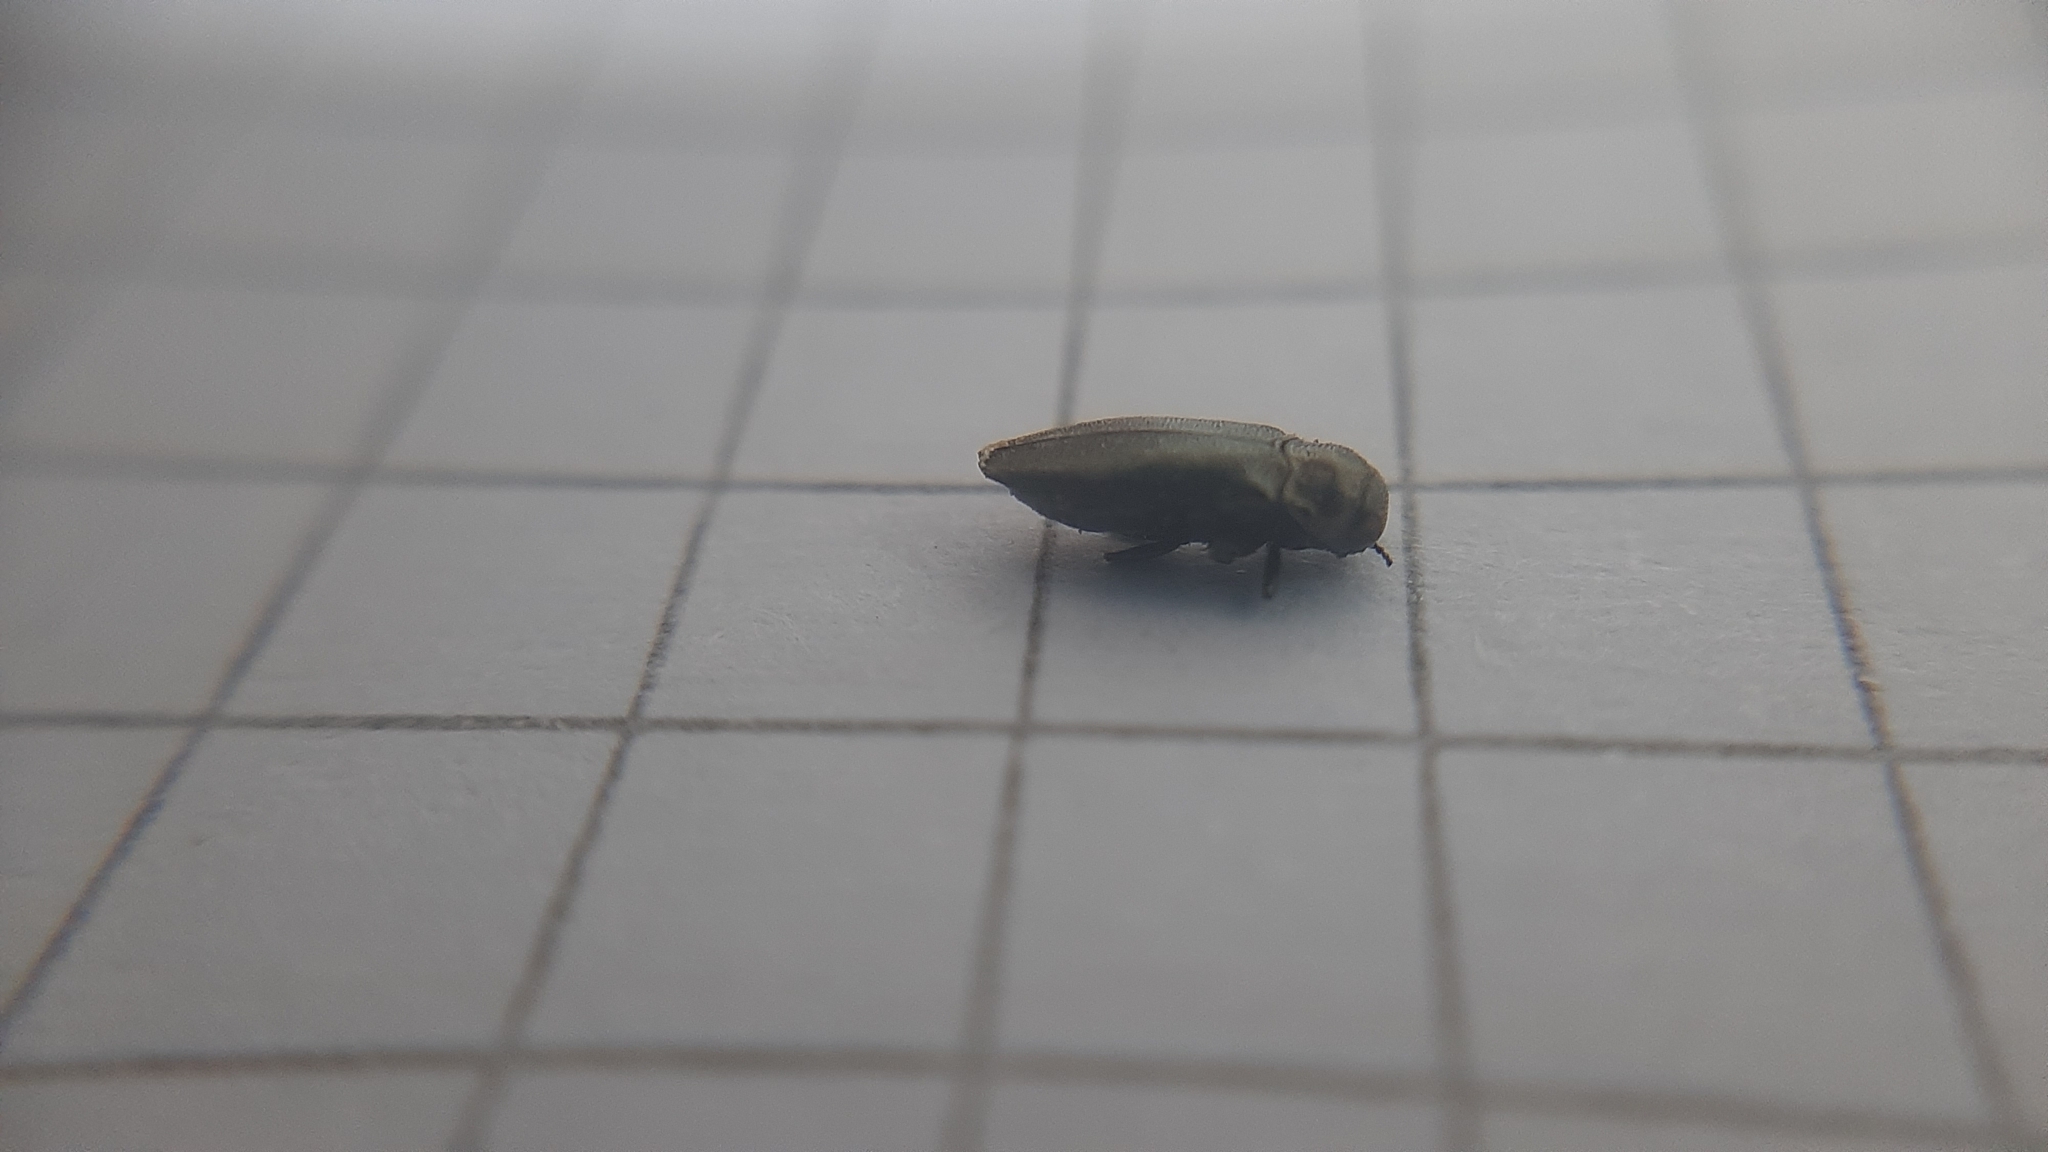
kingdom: Animalia
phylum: Arthropoda
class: Insecta
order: Coleoptera
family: Buprestidae
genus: Coraebus
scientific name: Coraebus elatus
